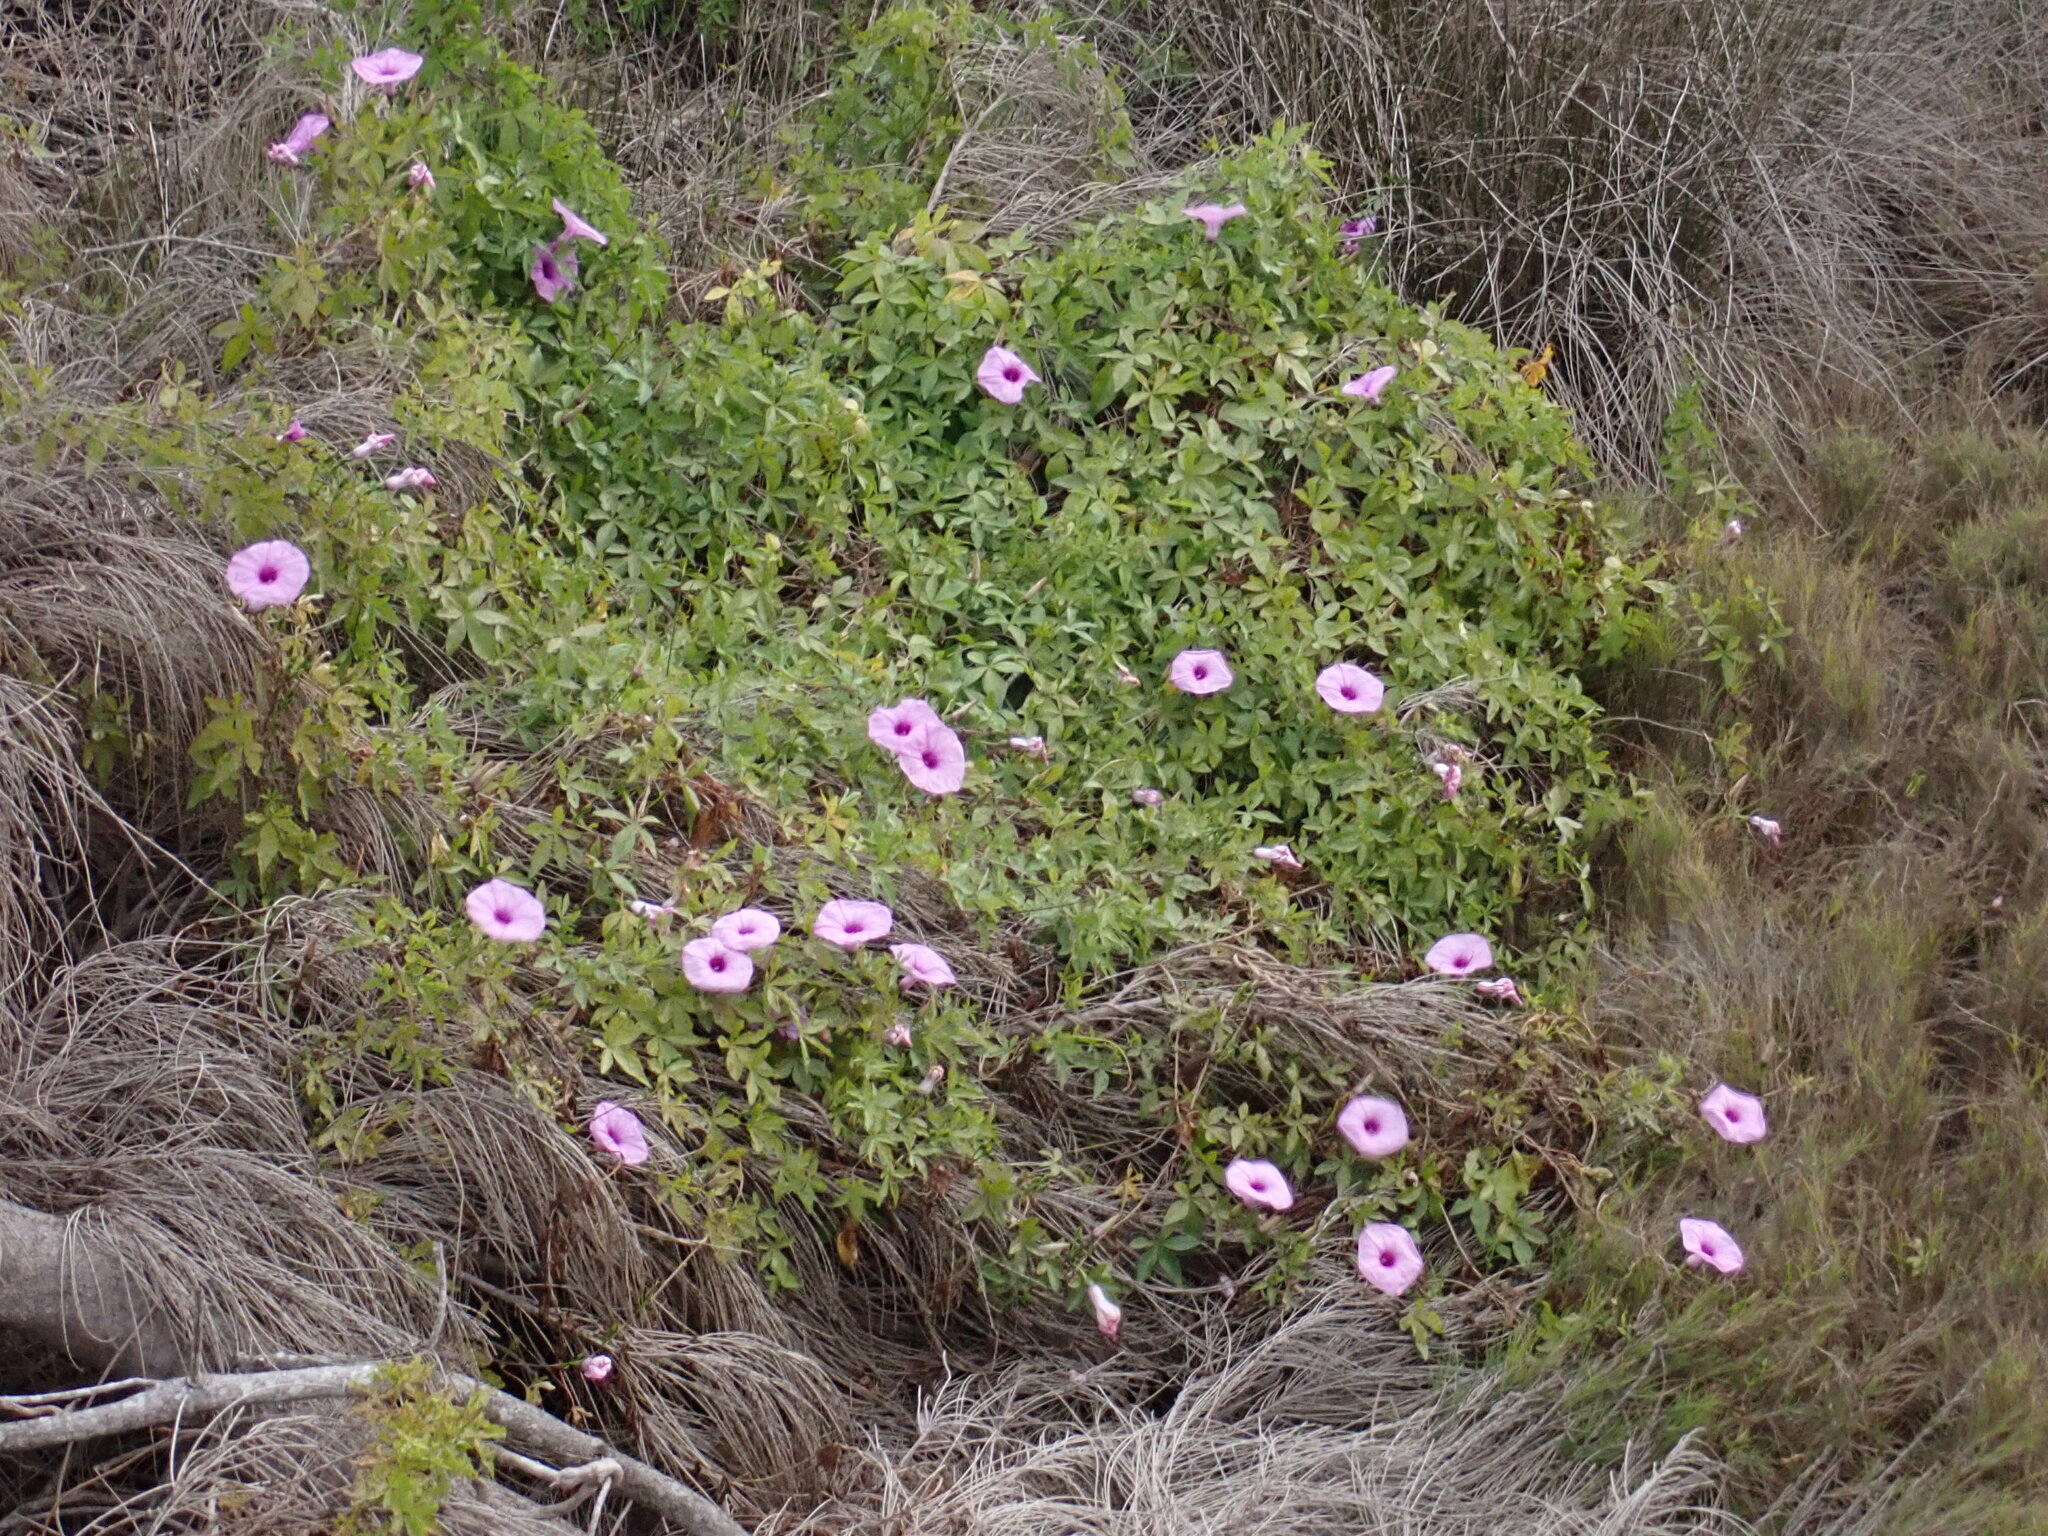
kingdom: Plantae
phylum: Tracheophyta
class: Magnoliopsida
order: Solanales
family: Convolvulaceae
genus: Ipomoea
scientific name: Ipomoea cairica
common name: Mile a minute vine
